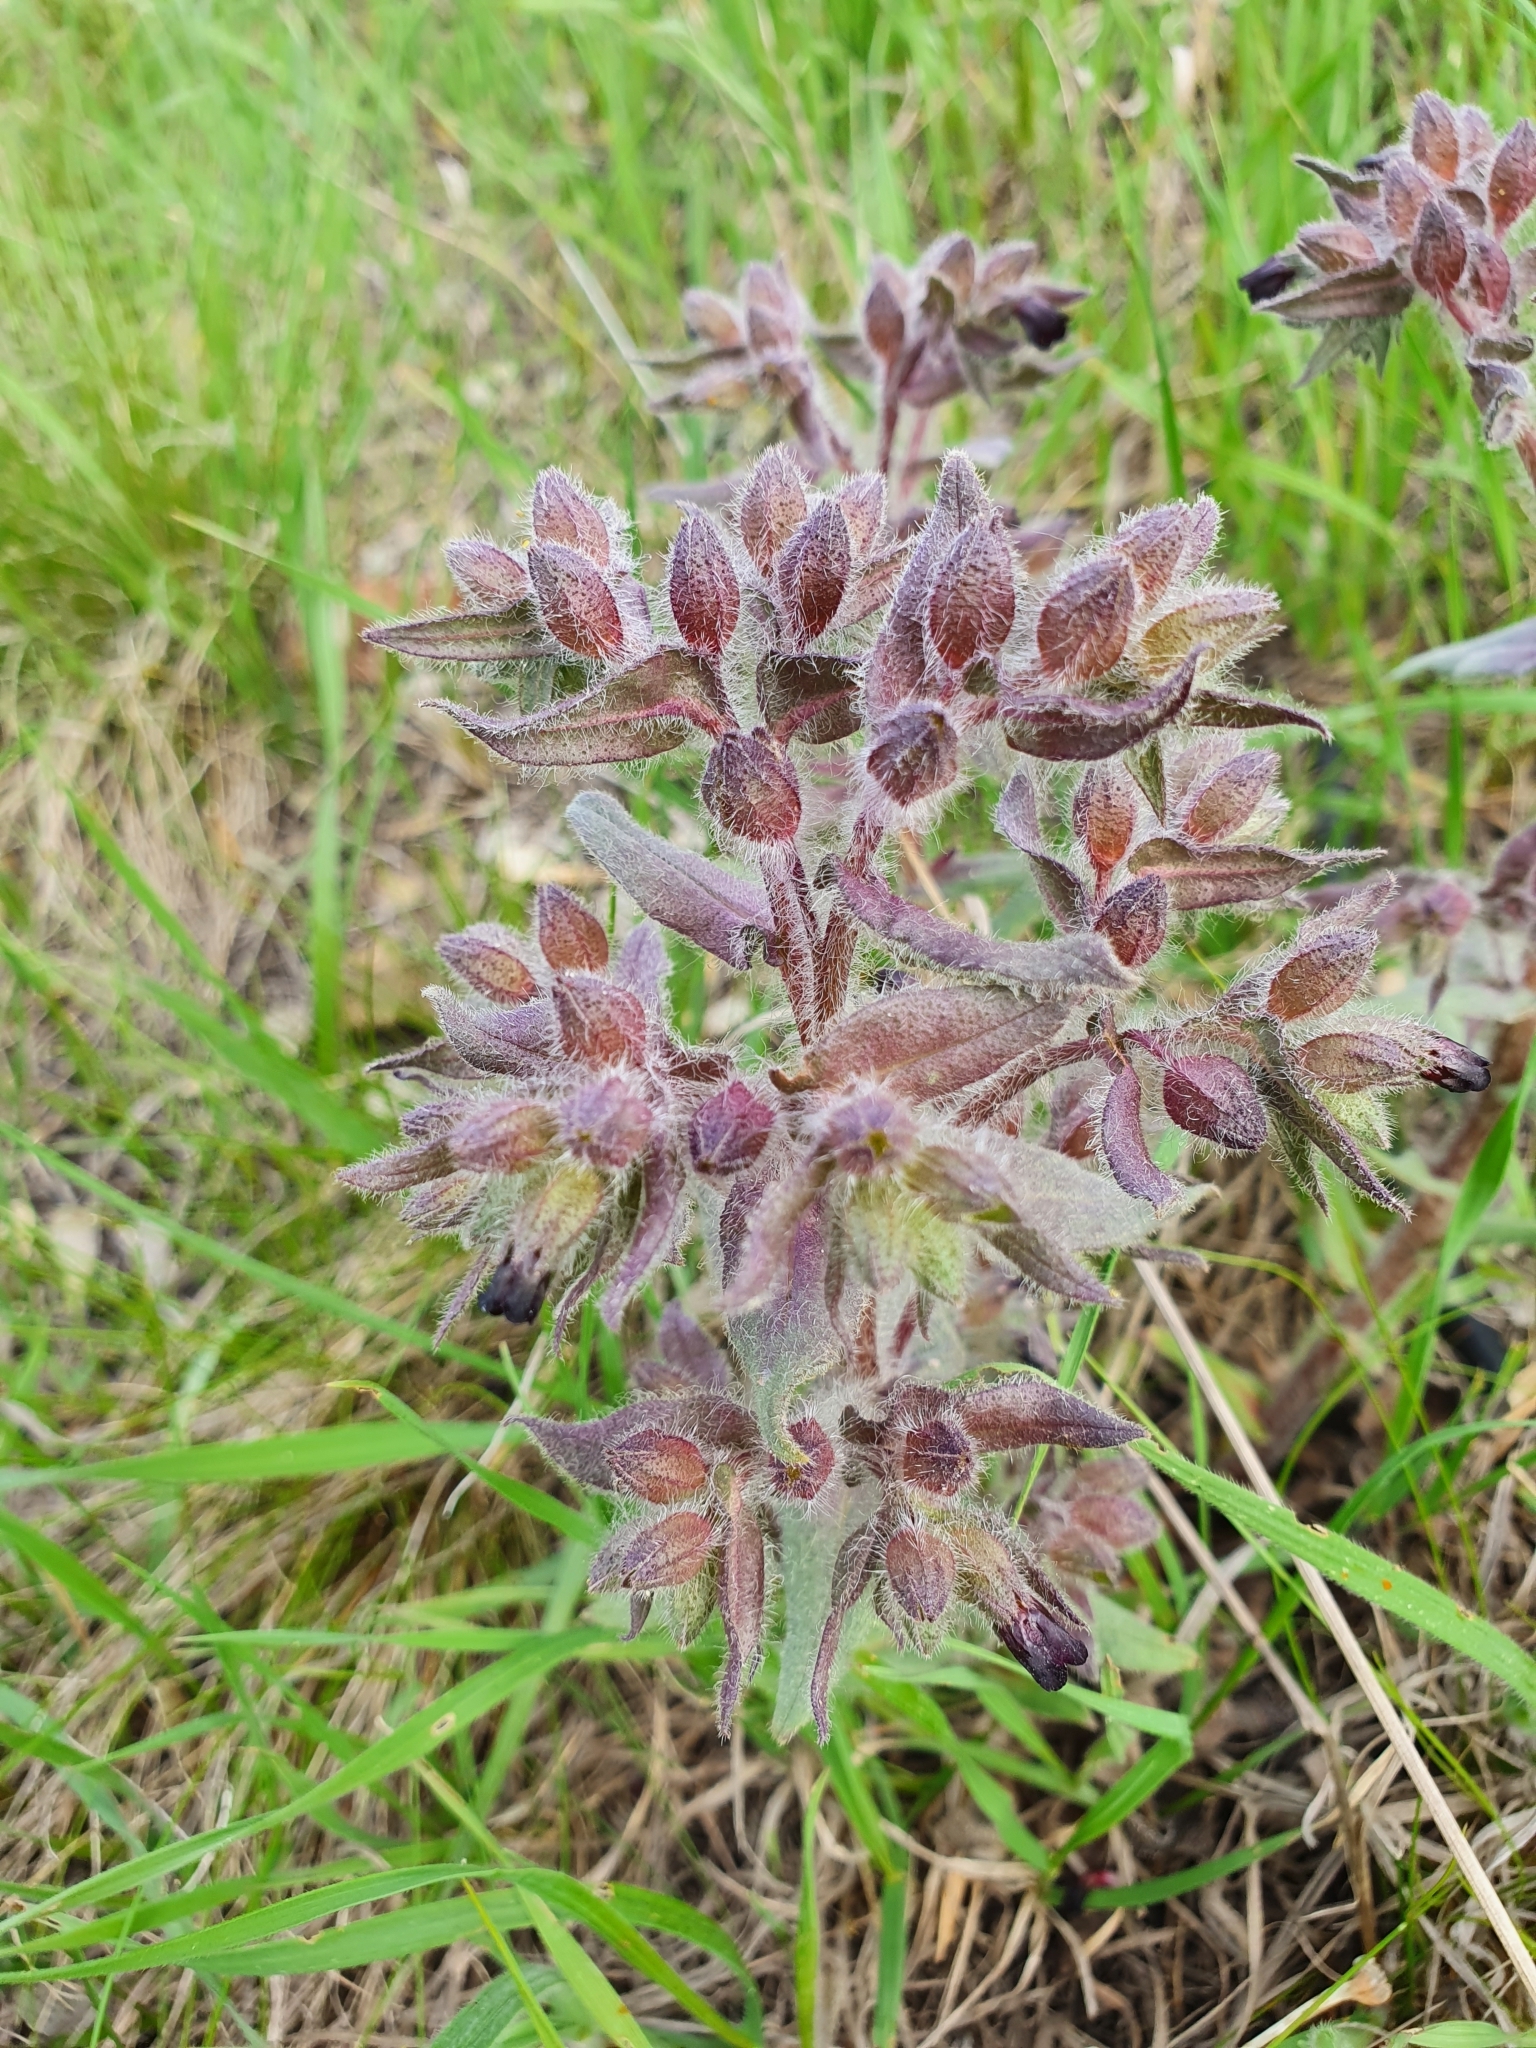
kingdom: Plantae
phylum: Tracheophyta
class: Magnoliopsida
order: Boraginales
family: Boraginaceae
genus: Nonea
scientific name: Nonea pulla
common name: Brown nonea
